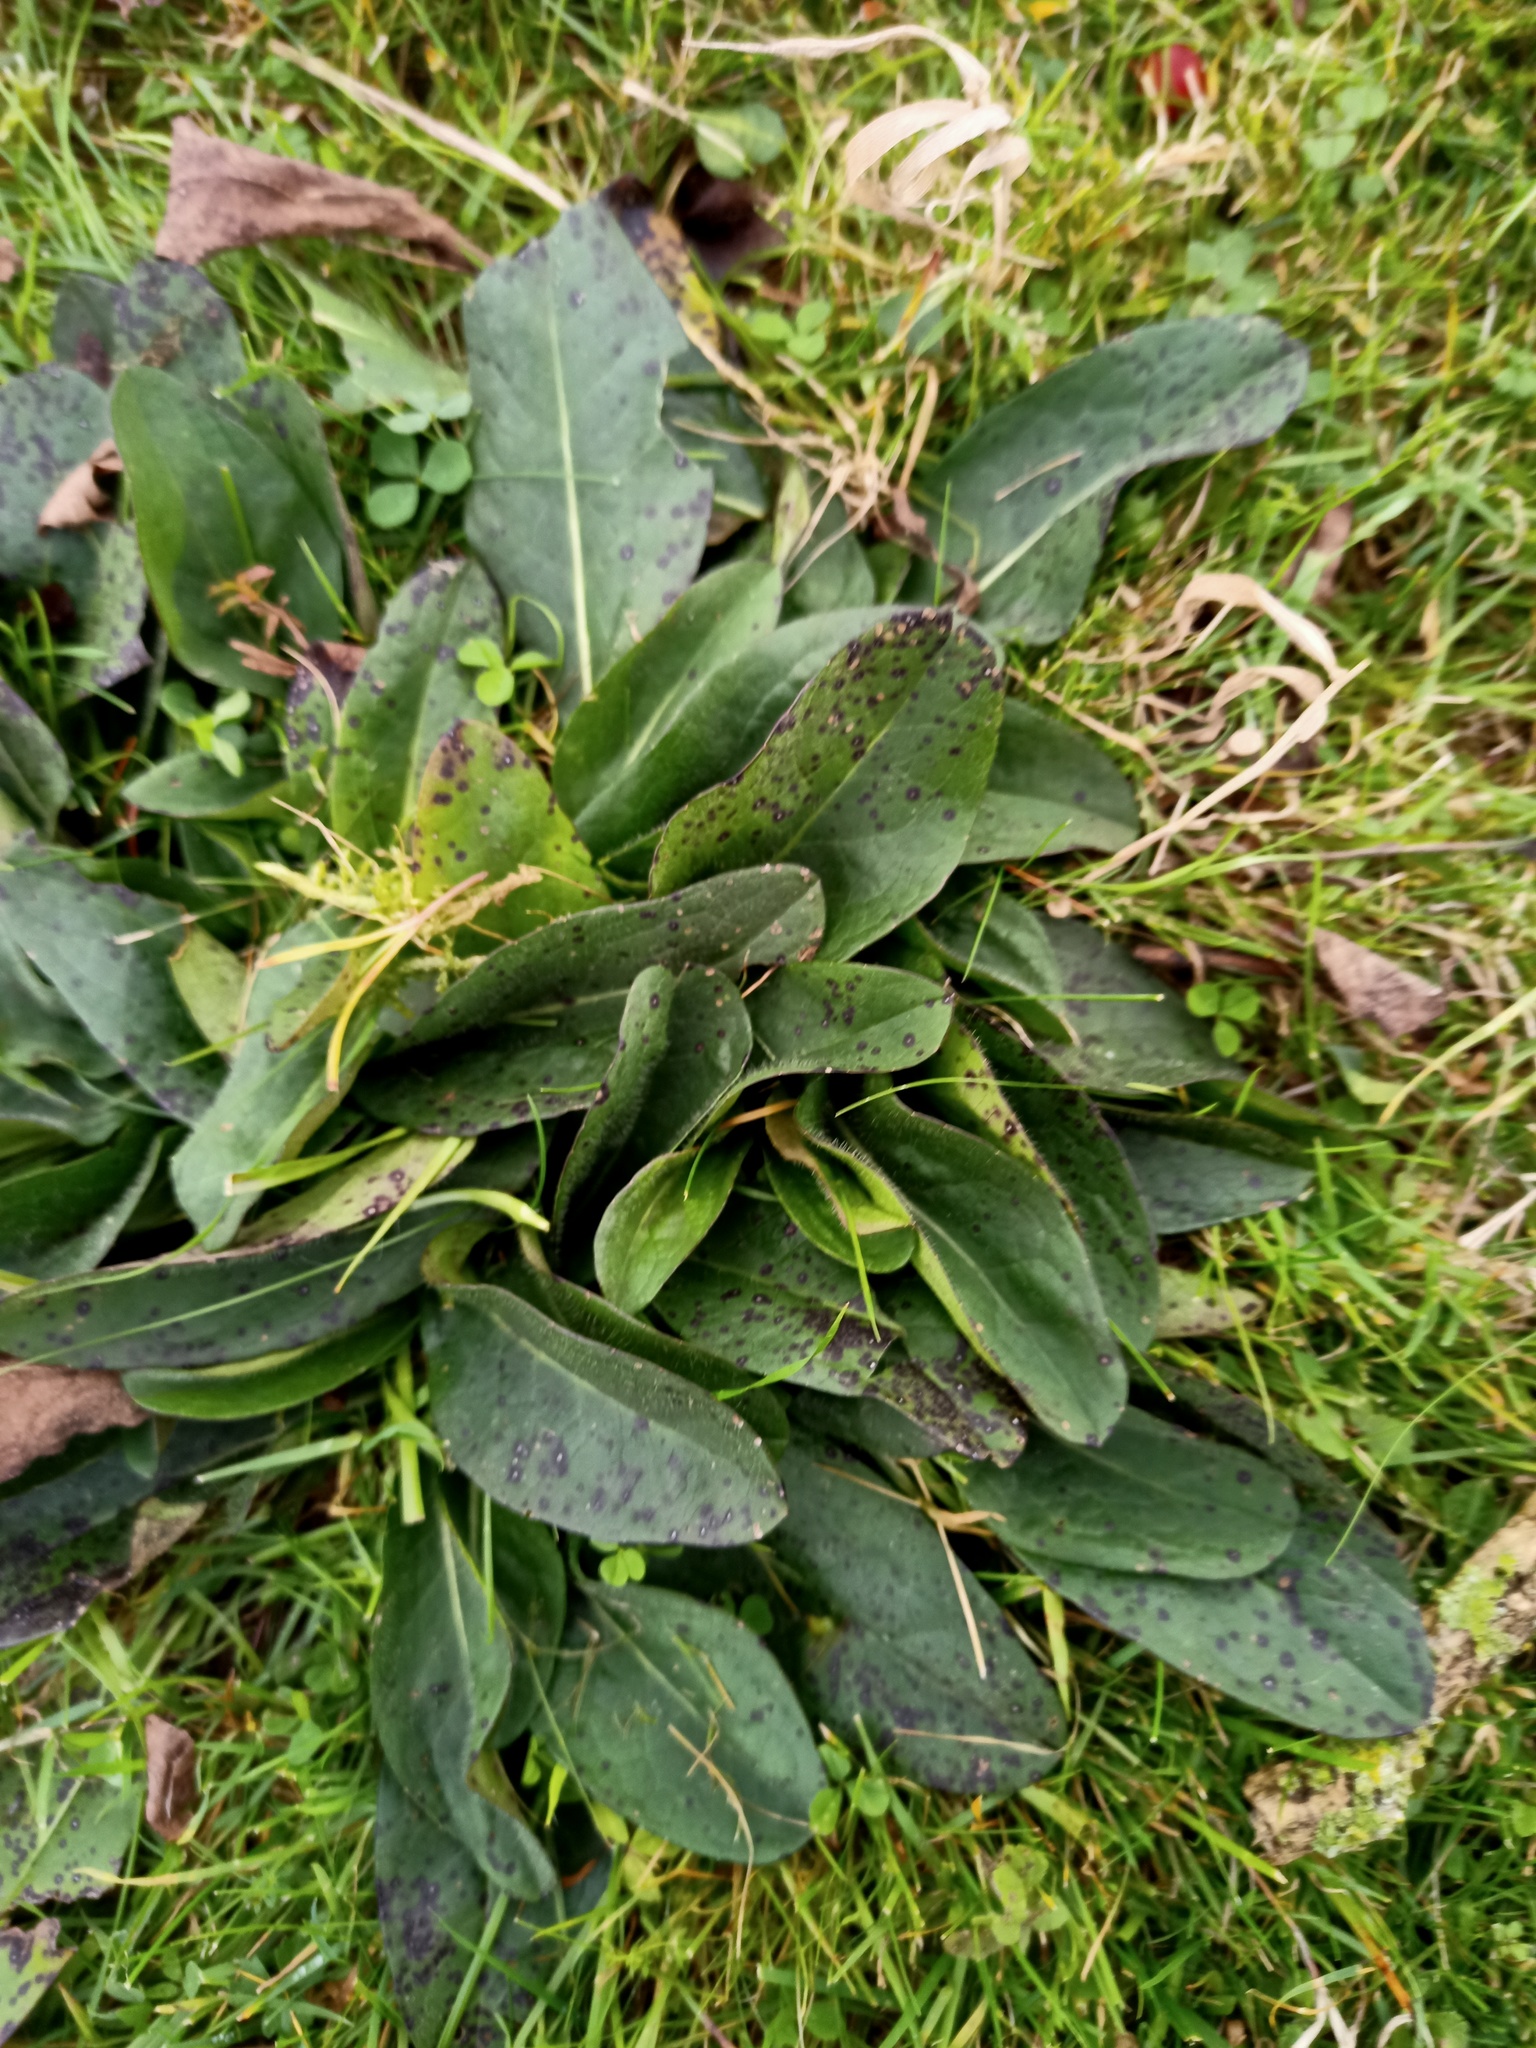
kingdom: Plantae
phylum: Tracheophyta
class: Magnoliopsida
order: Dipsacales
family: Caprifoliaceae
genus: Succisa
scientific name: Succisa pratensis
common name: Devil's-bit
